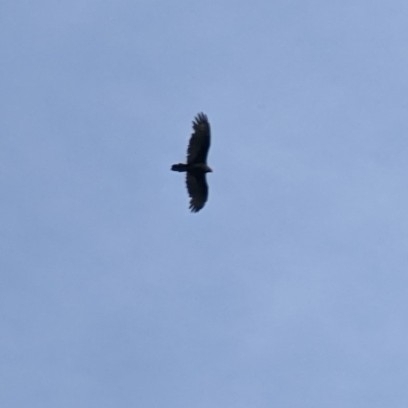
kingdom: Animalia
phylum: Chordata
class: Aves
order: Accipitriformes
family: Cathartidae
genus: Cathartes
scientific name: Cathartes aura
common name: Turkey vulture
